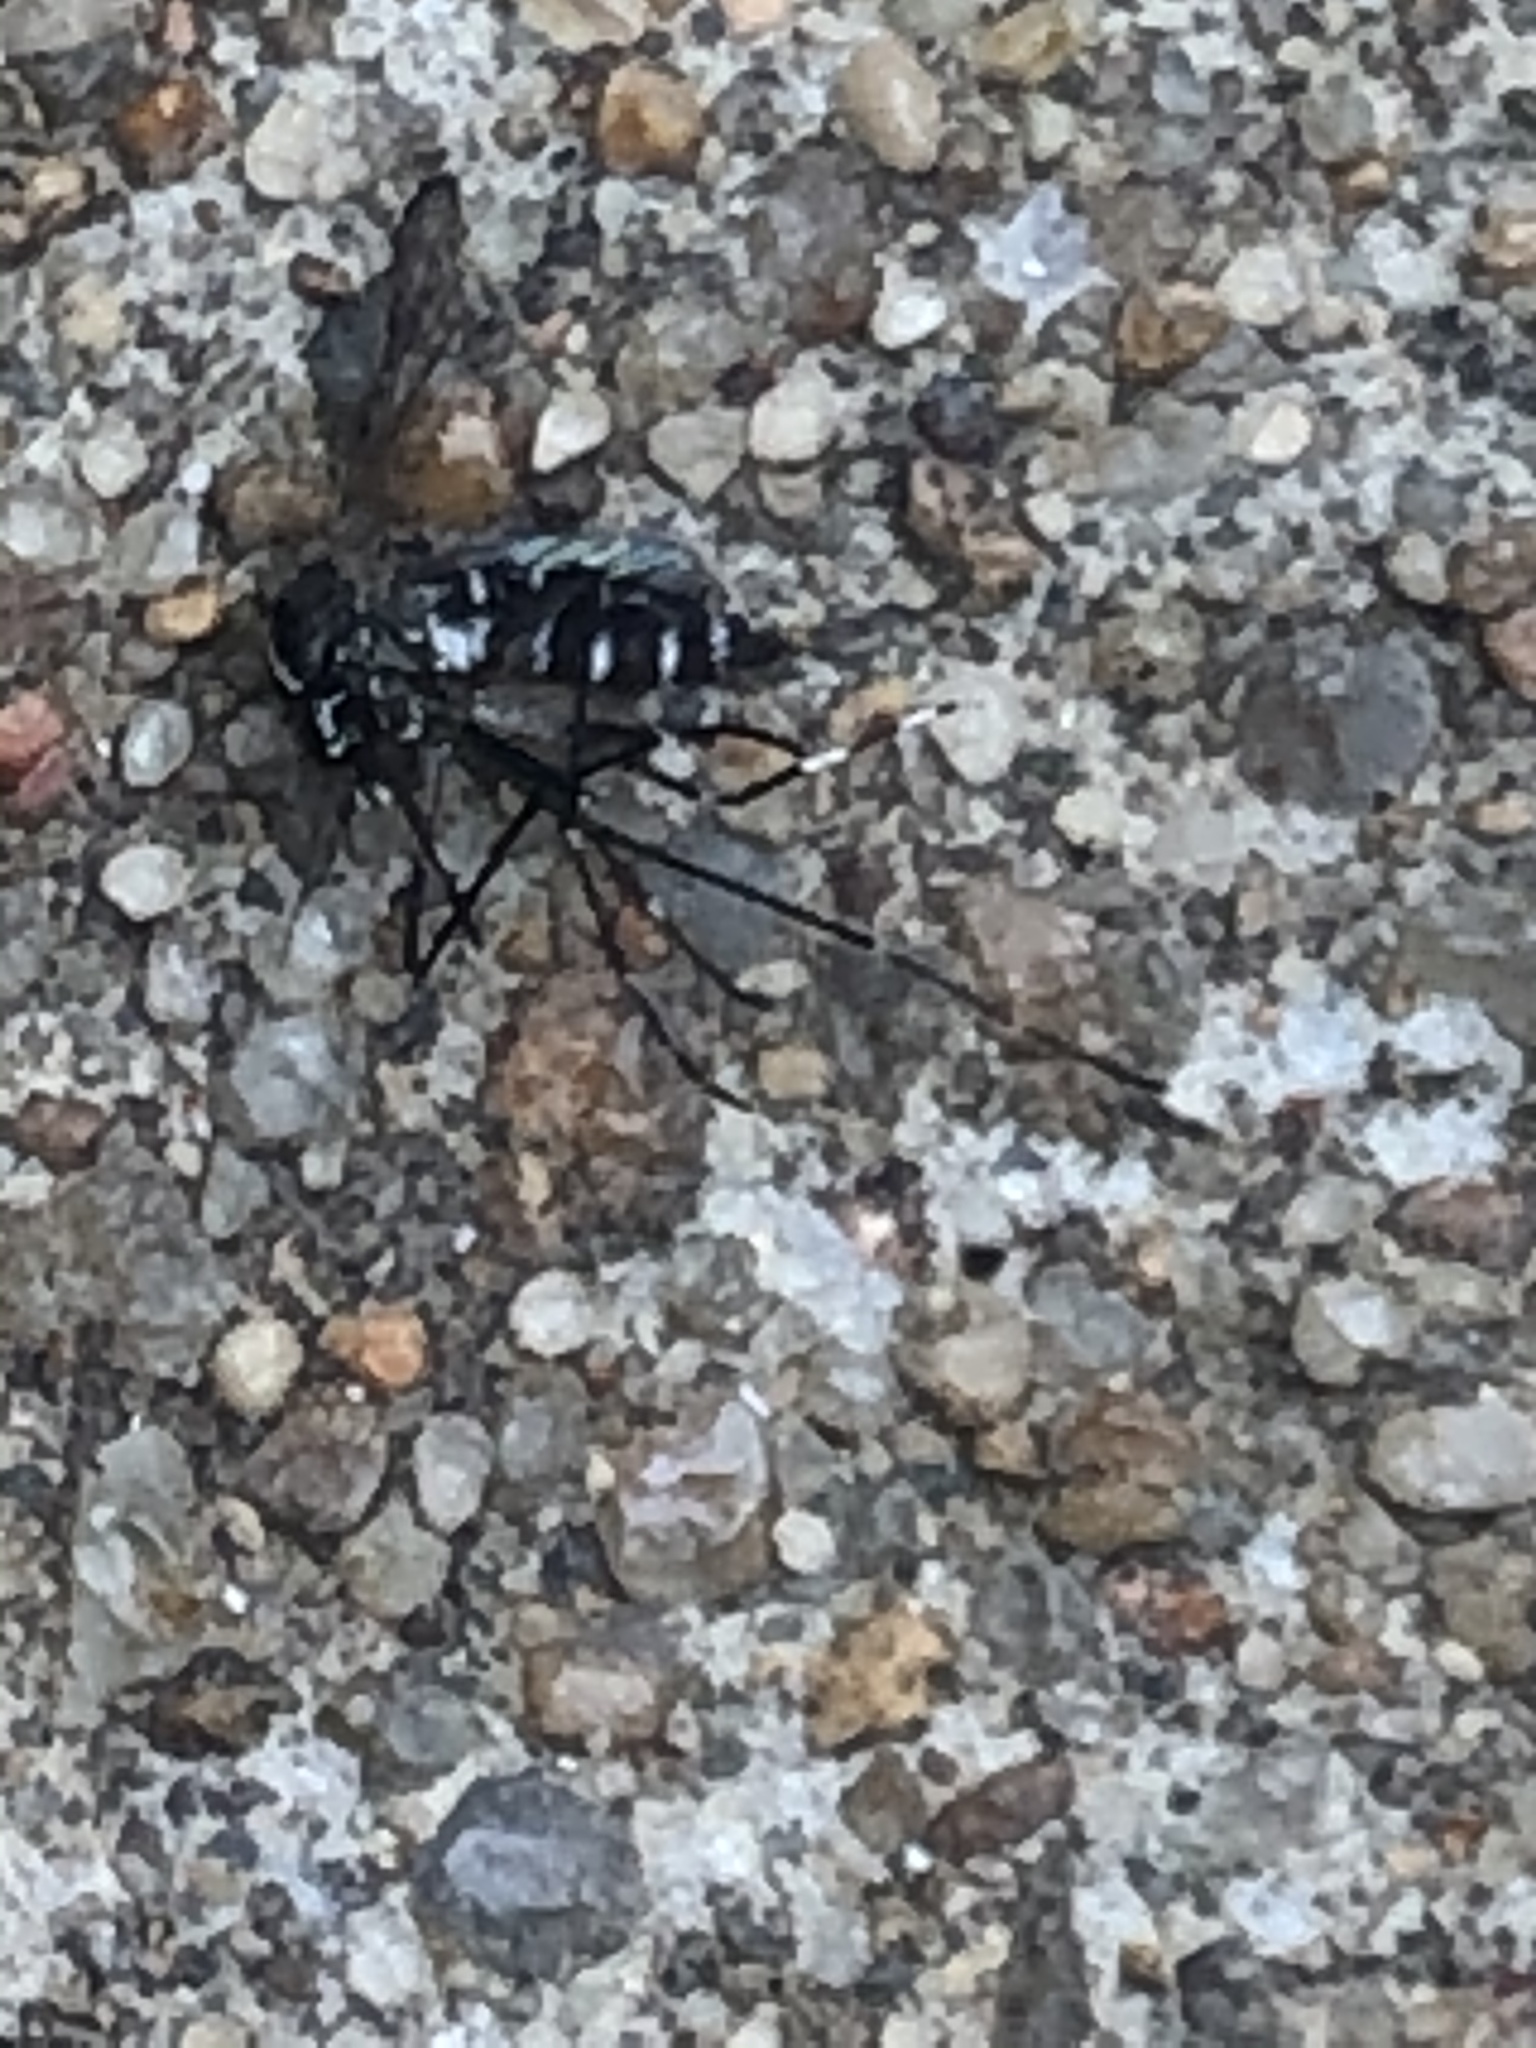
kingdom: Animalia
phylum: Arthropoda
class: Insecta
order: Diptera
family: Culicidae
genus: Aedes
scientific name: Aedes albopictus
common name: Tiger mosquito
